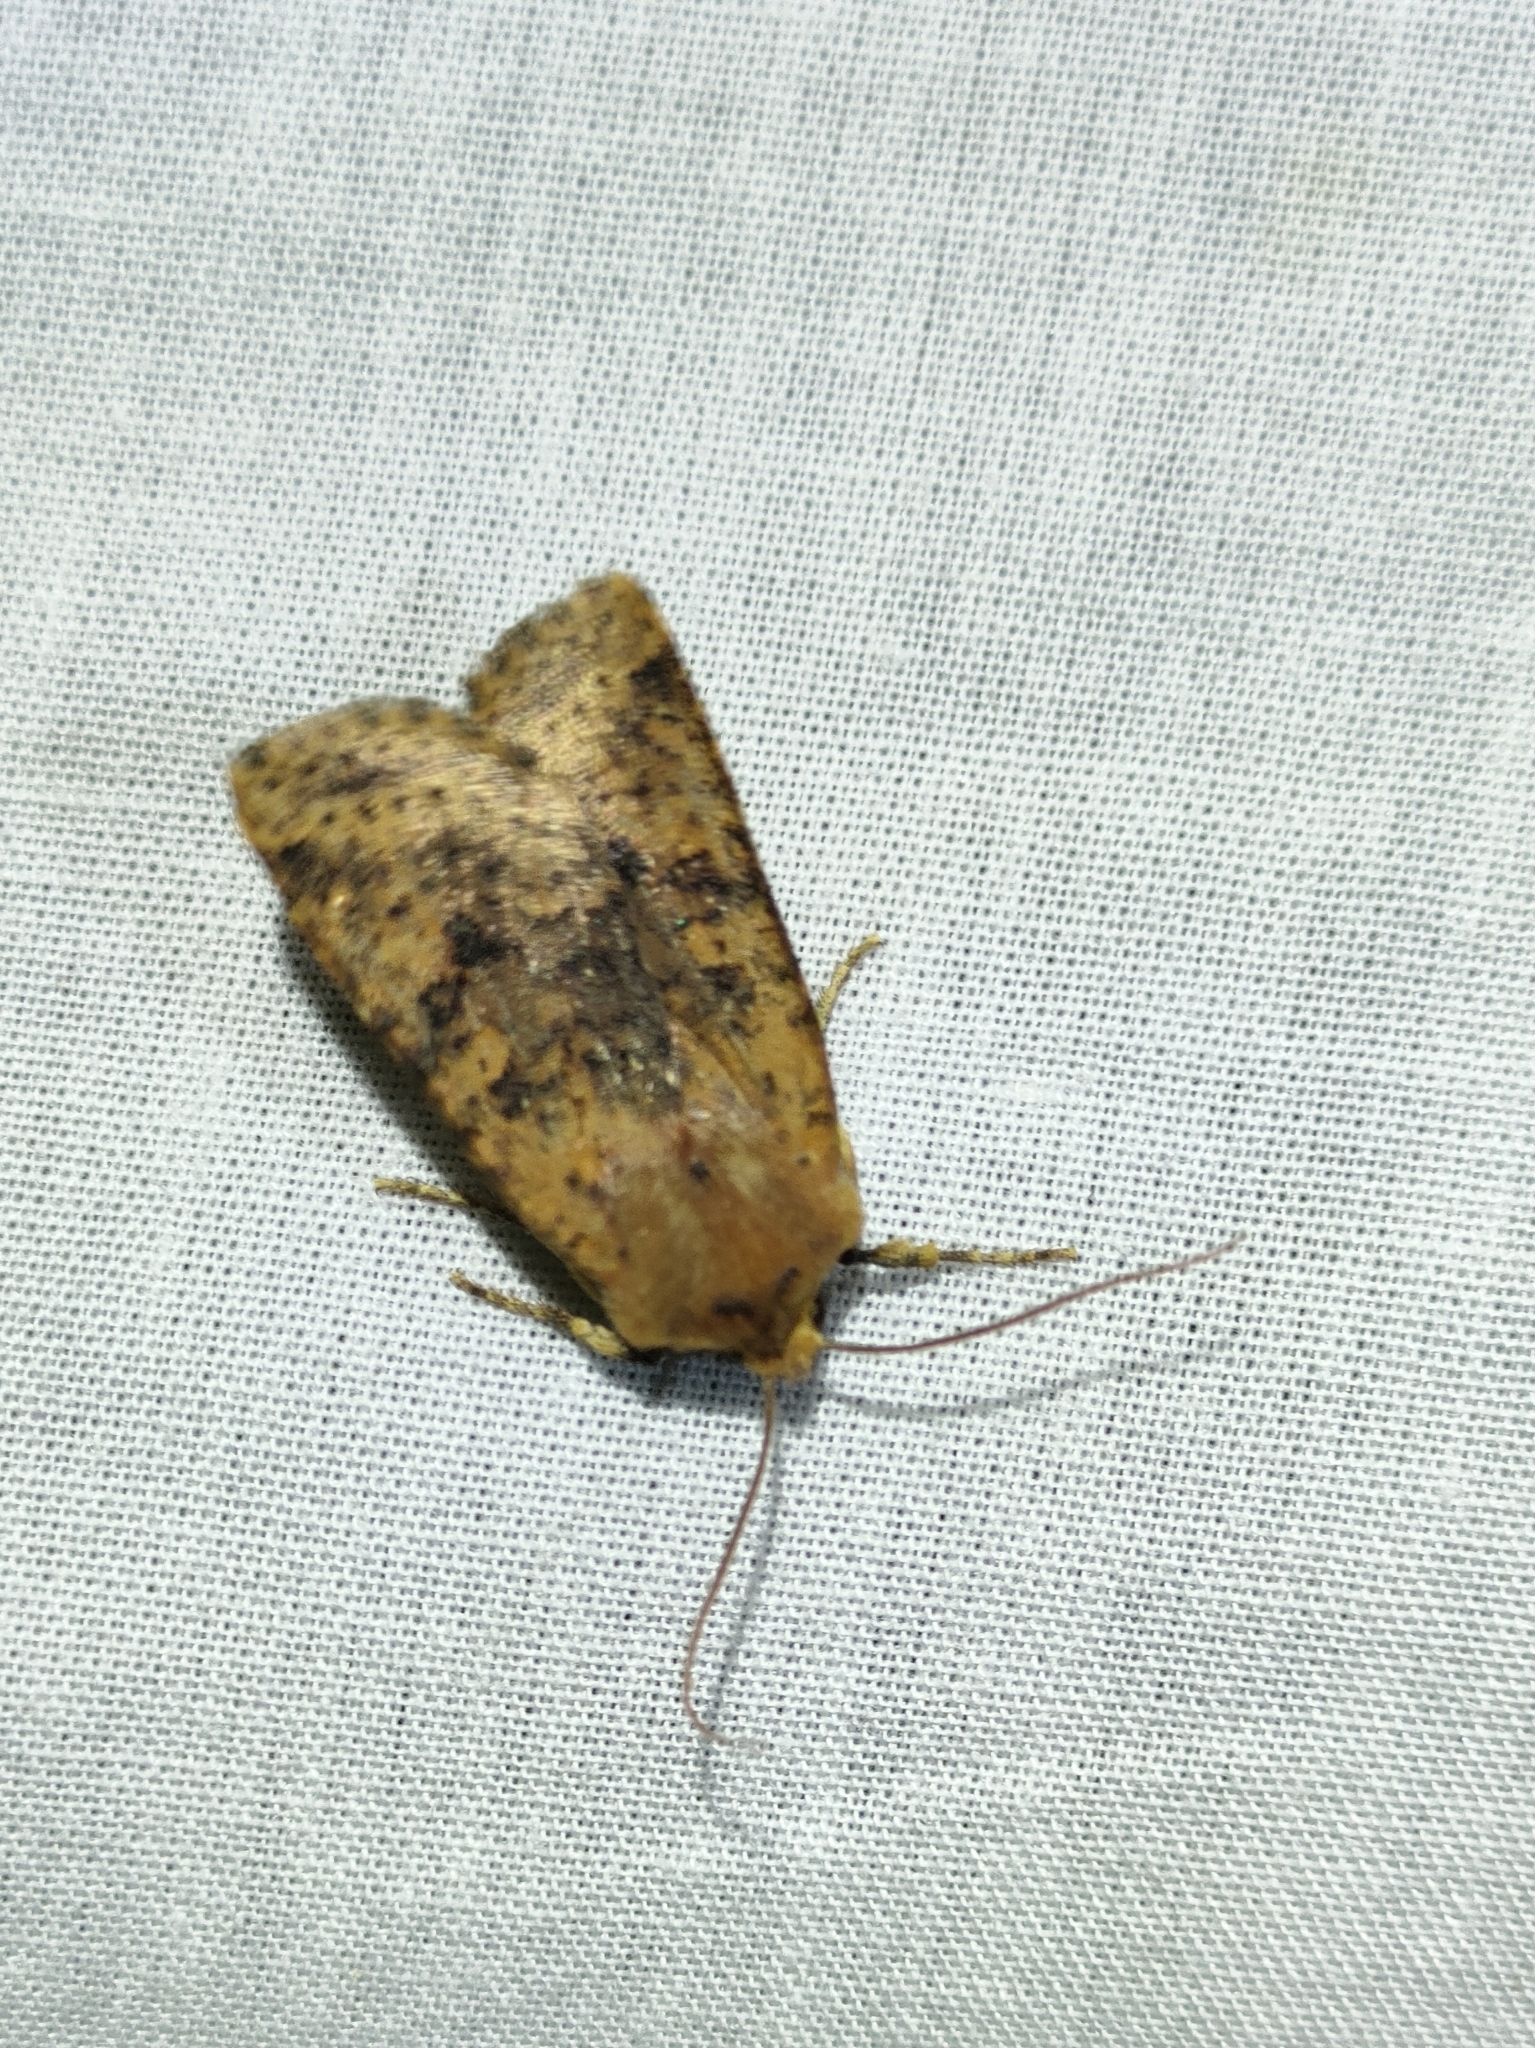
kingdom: Animalia
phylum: Arthropoda
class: Insecta
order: Lepidoptera
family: Noctuidae
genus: Conistra
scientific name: Conistra staudingeri
